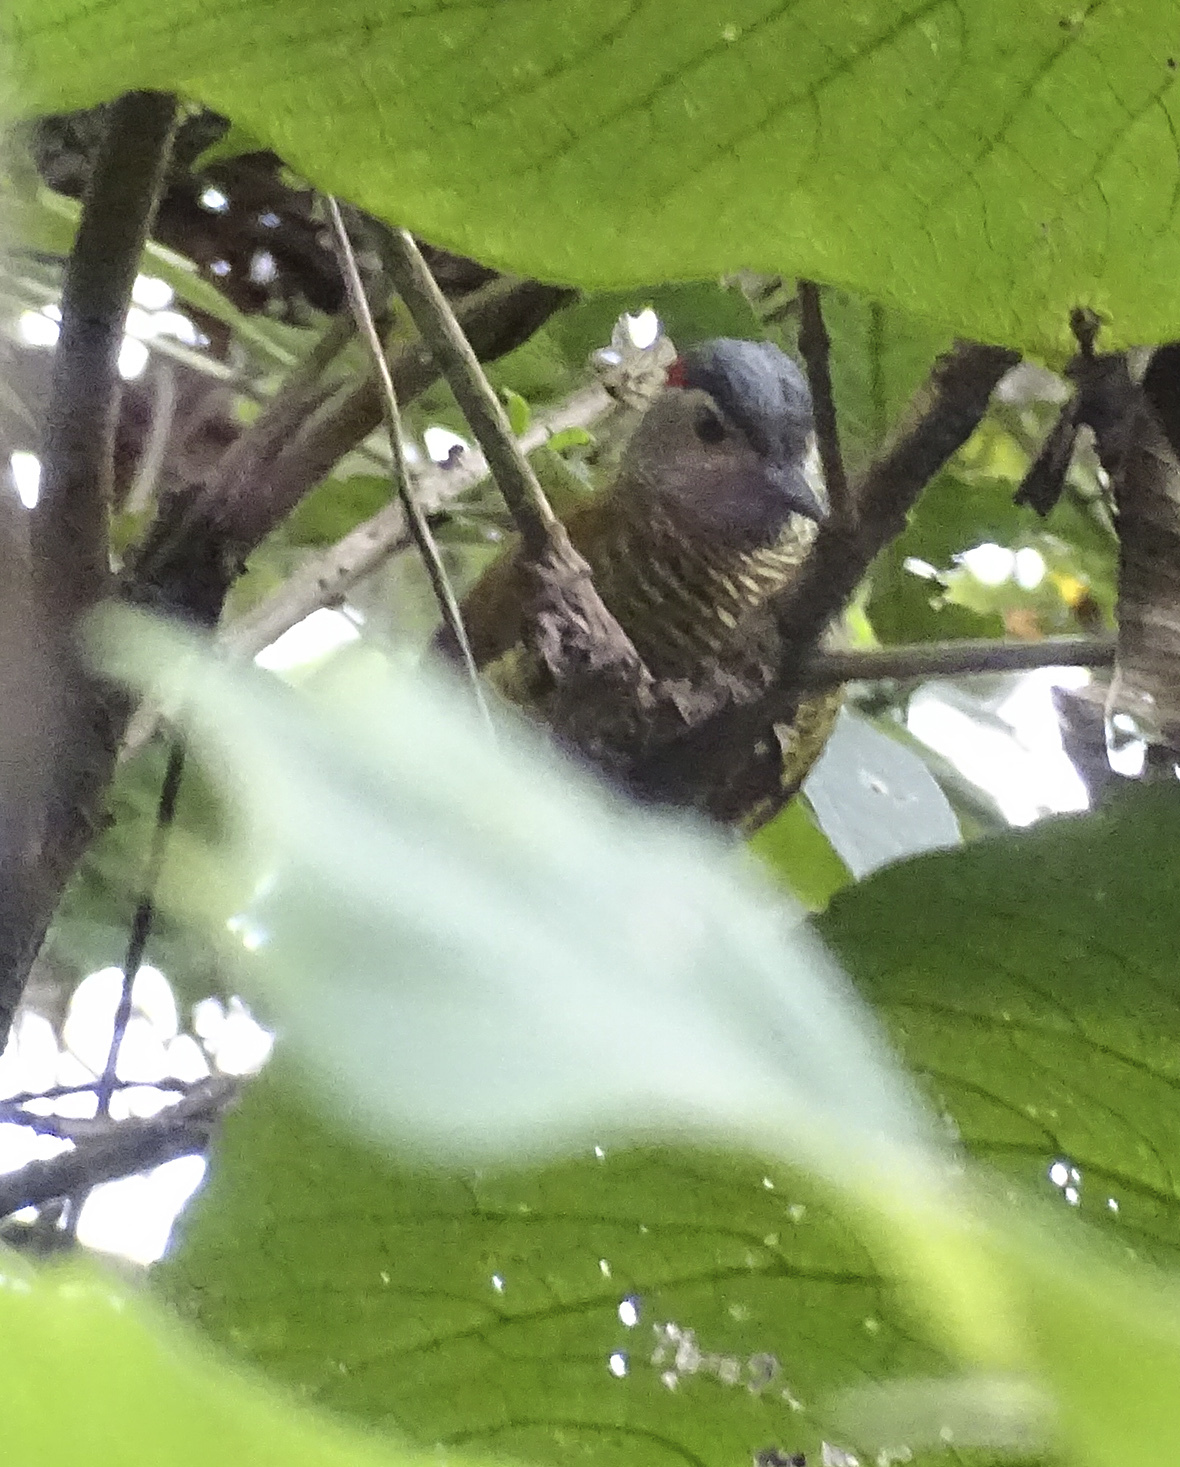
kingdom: Animalia
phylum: Chordata
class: Aves
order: Piciformes
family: Picidae
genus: Colaptes
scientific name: Colaptes rubiginosus
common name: Golden-olive woodpecker
